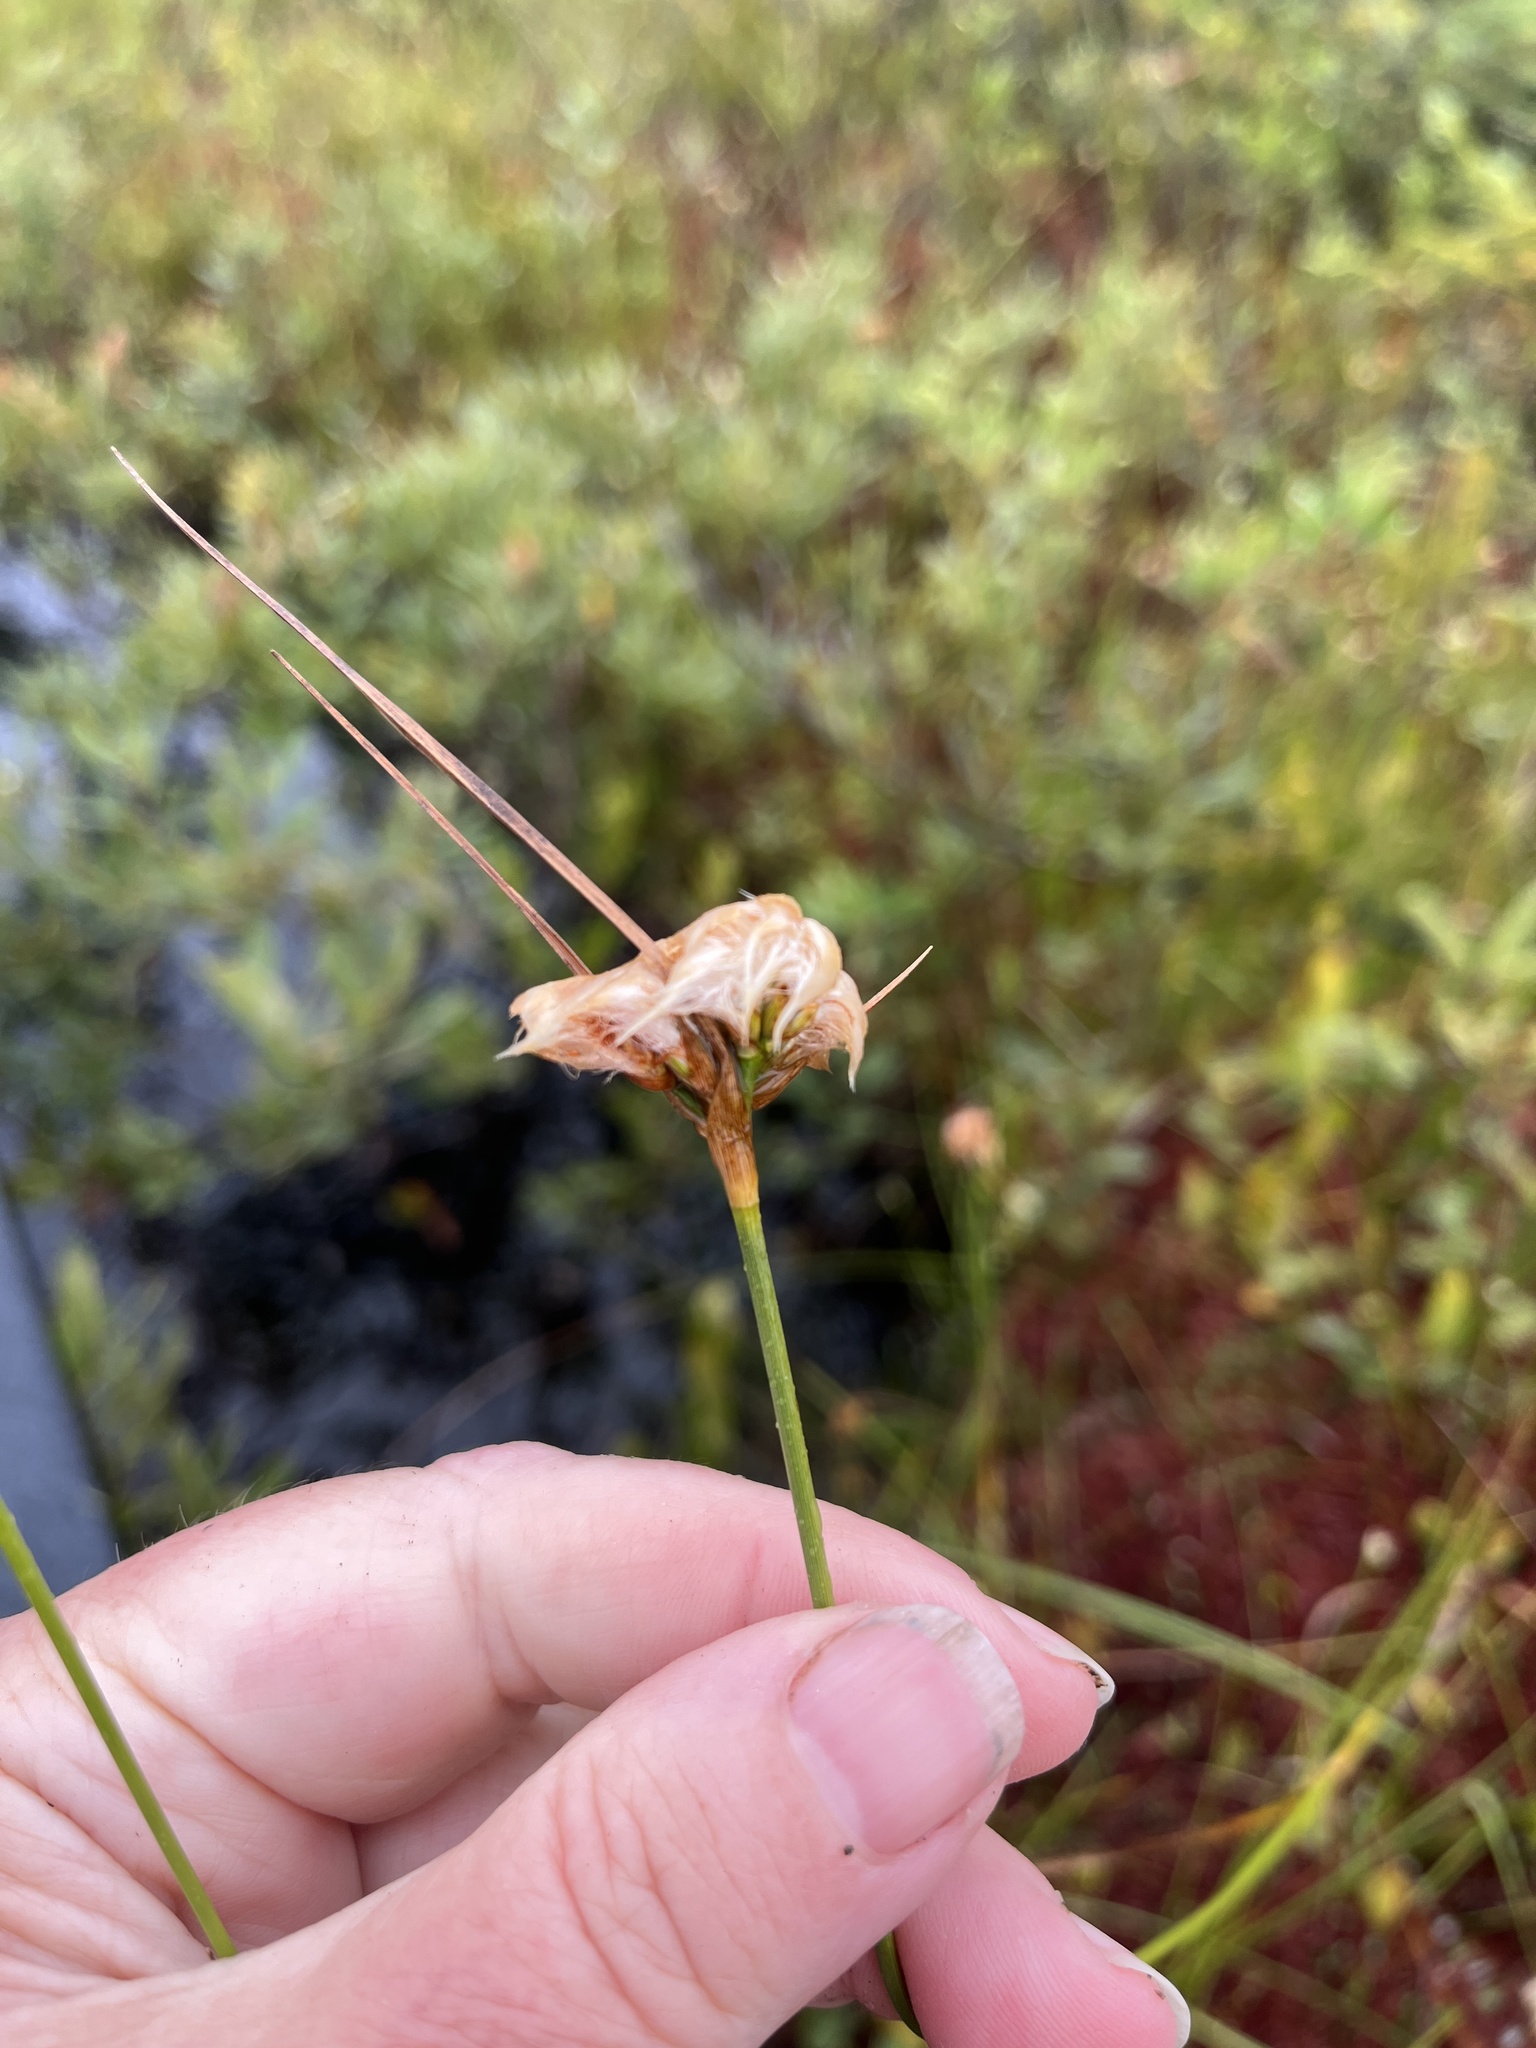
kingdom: Plantae
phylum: Tracheophyta
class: Liliopsida
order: Poales
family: Cyperaceae
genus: Eriophorum
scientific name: Eriophorum virginicum
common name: Tawny cottongrass
